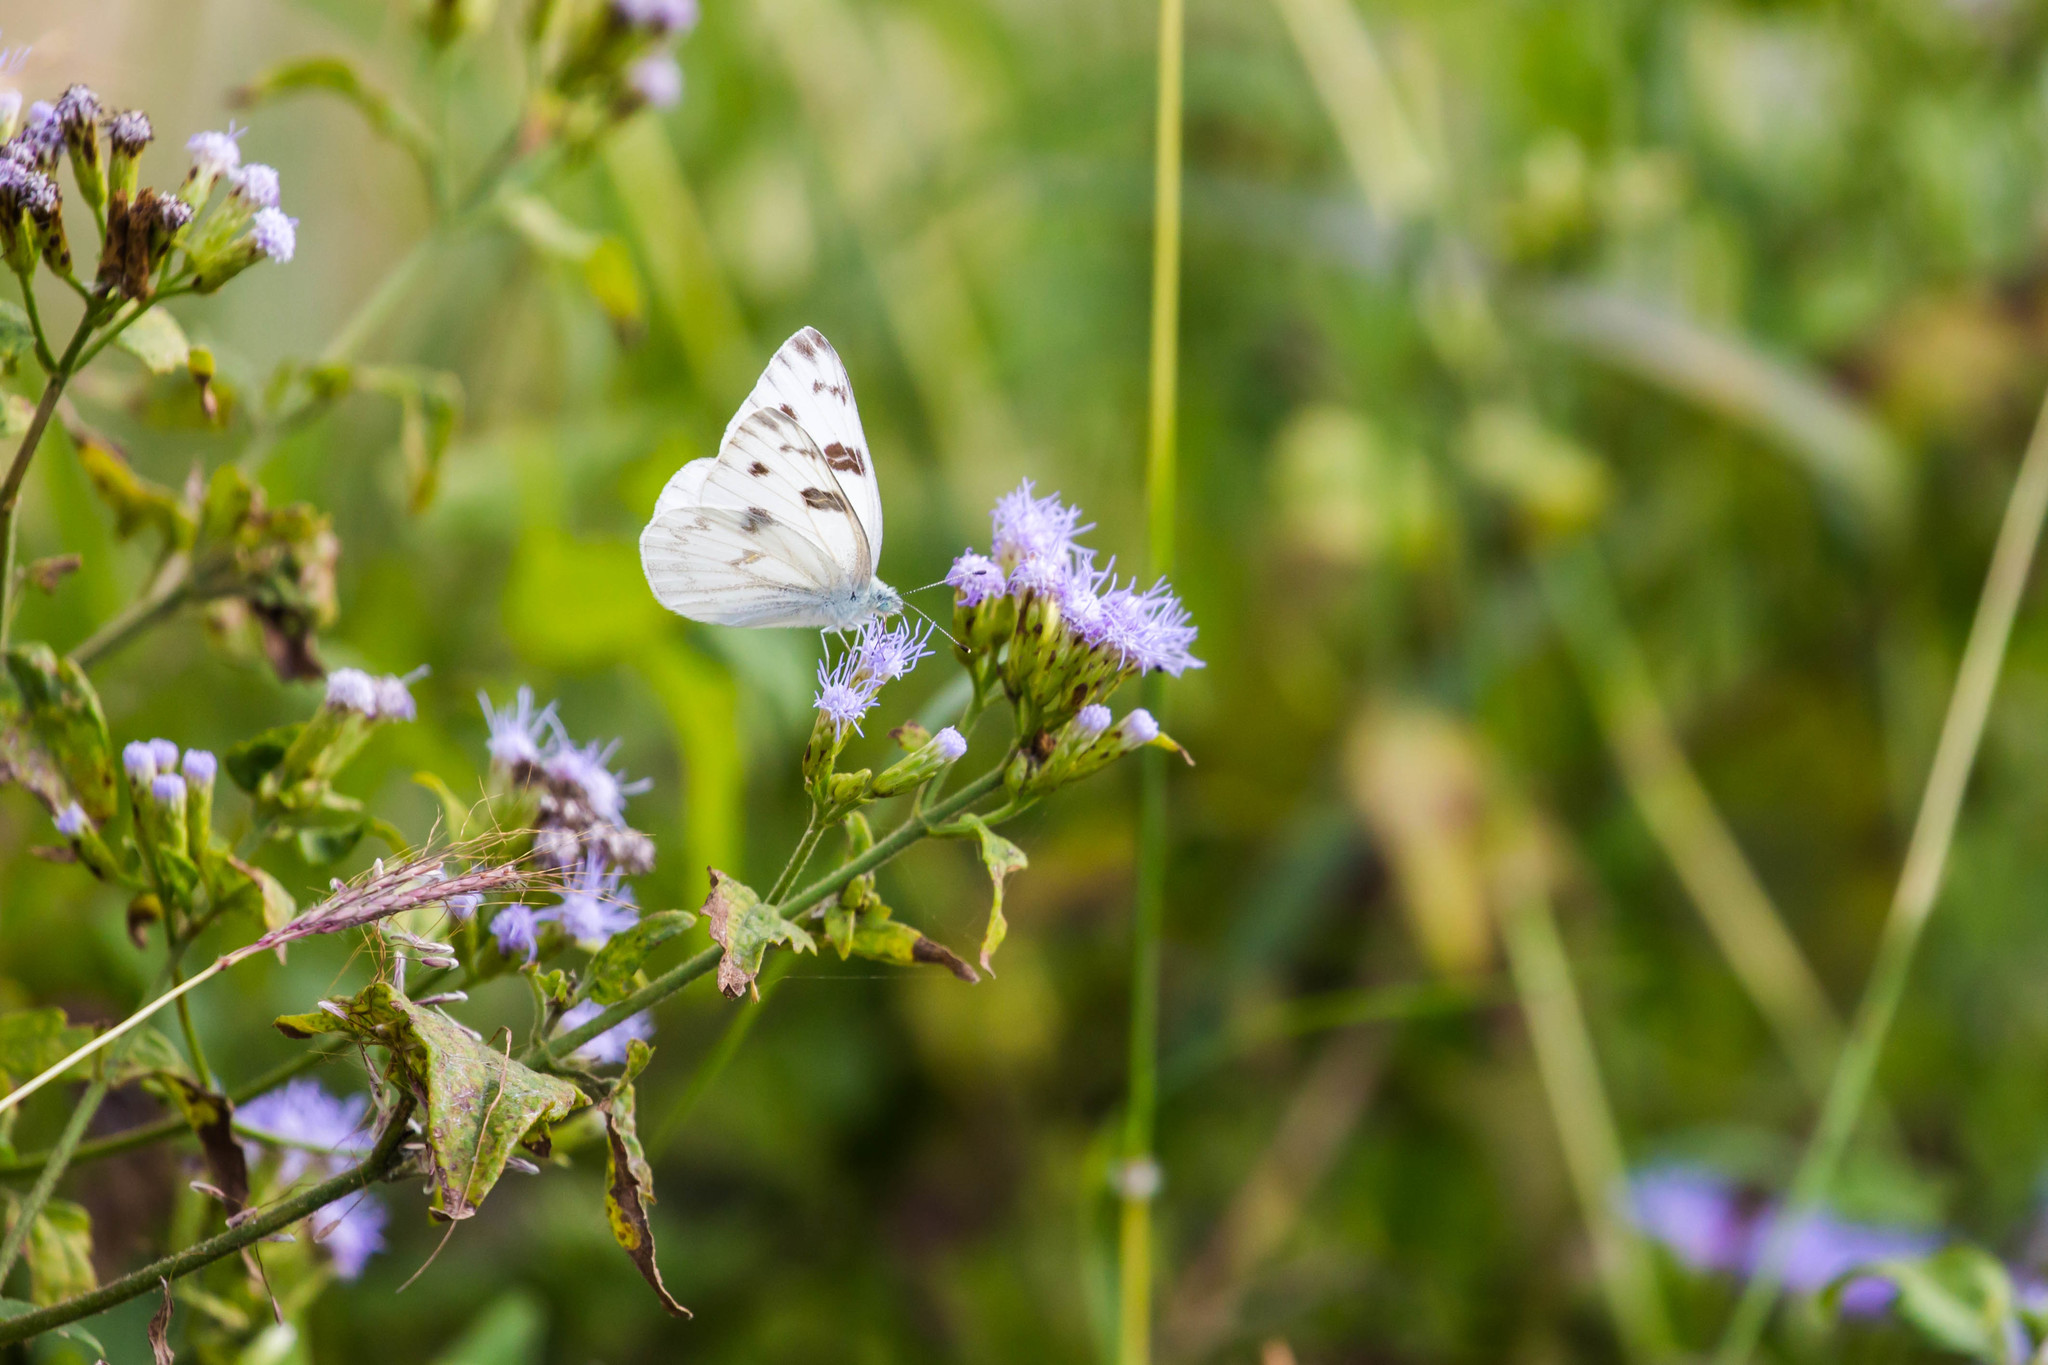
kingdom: Animalia
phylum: Arthropoda
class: Insecta
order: Lepidoptera
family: Pieridae
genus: Pontia
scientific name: Pontia protodice
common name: Checkered white
